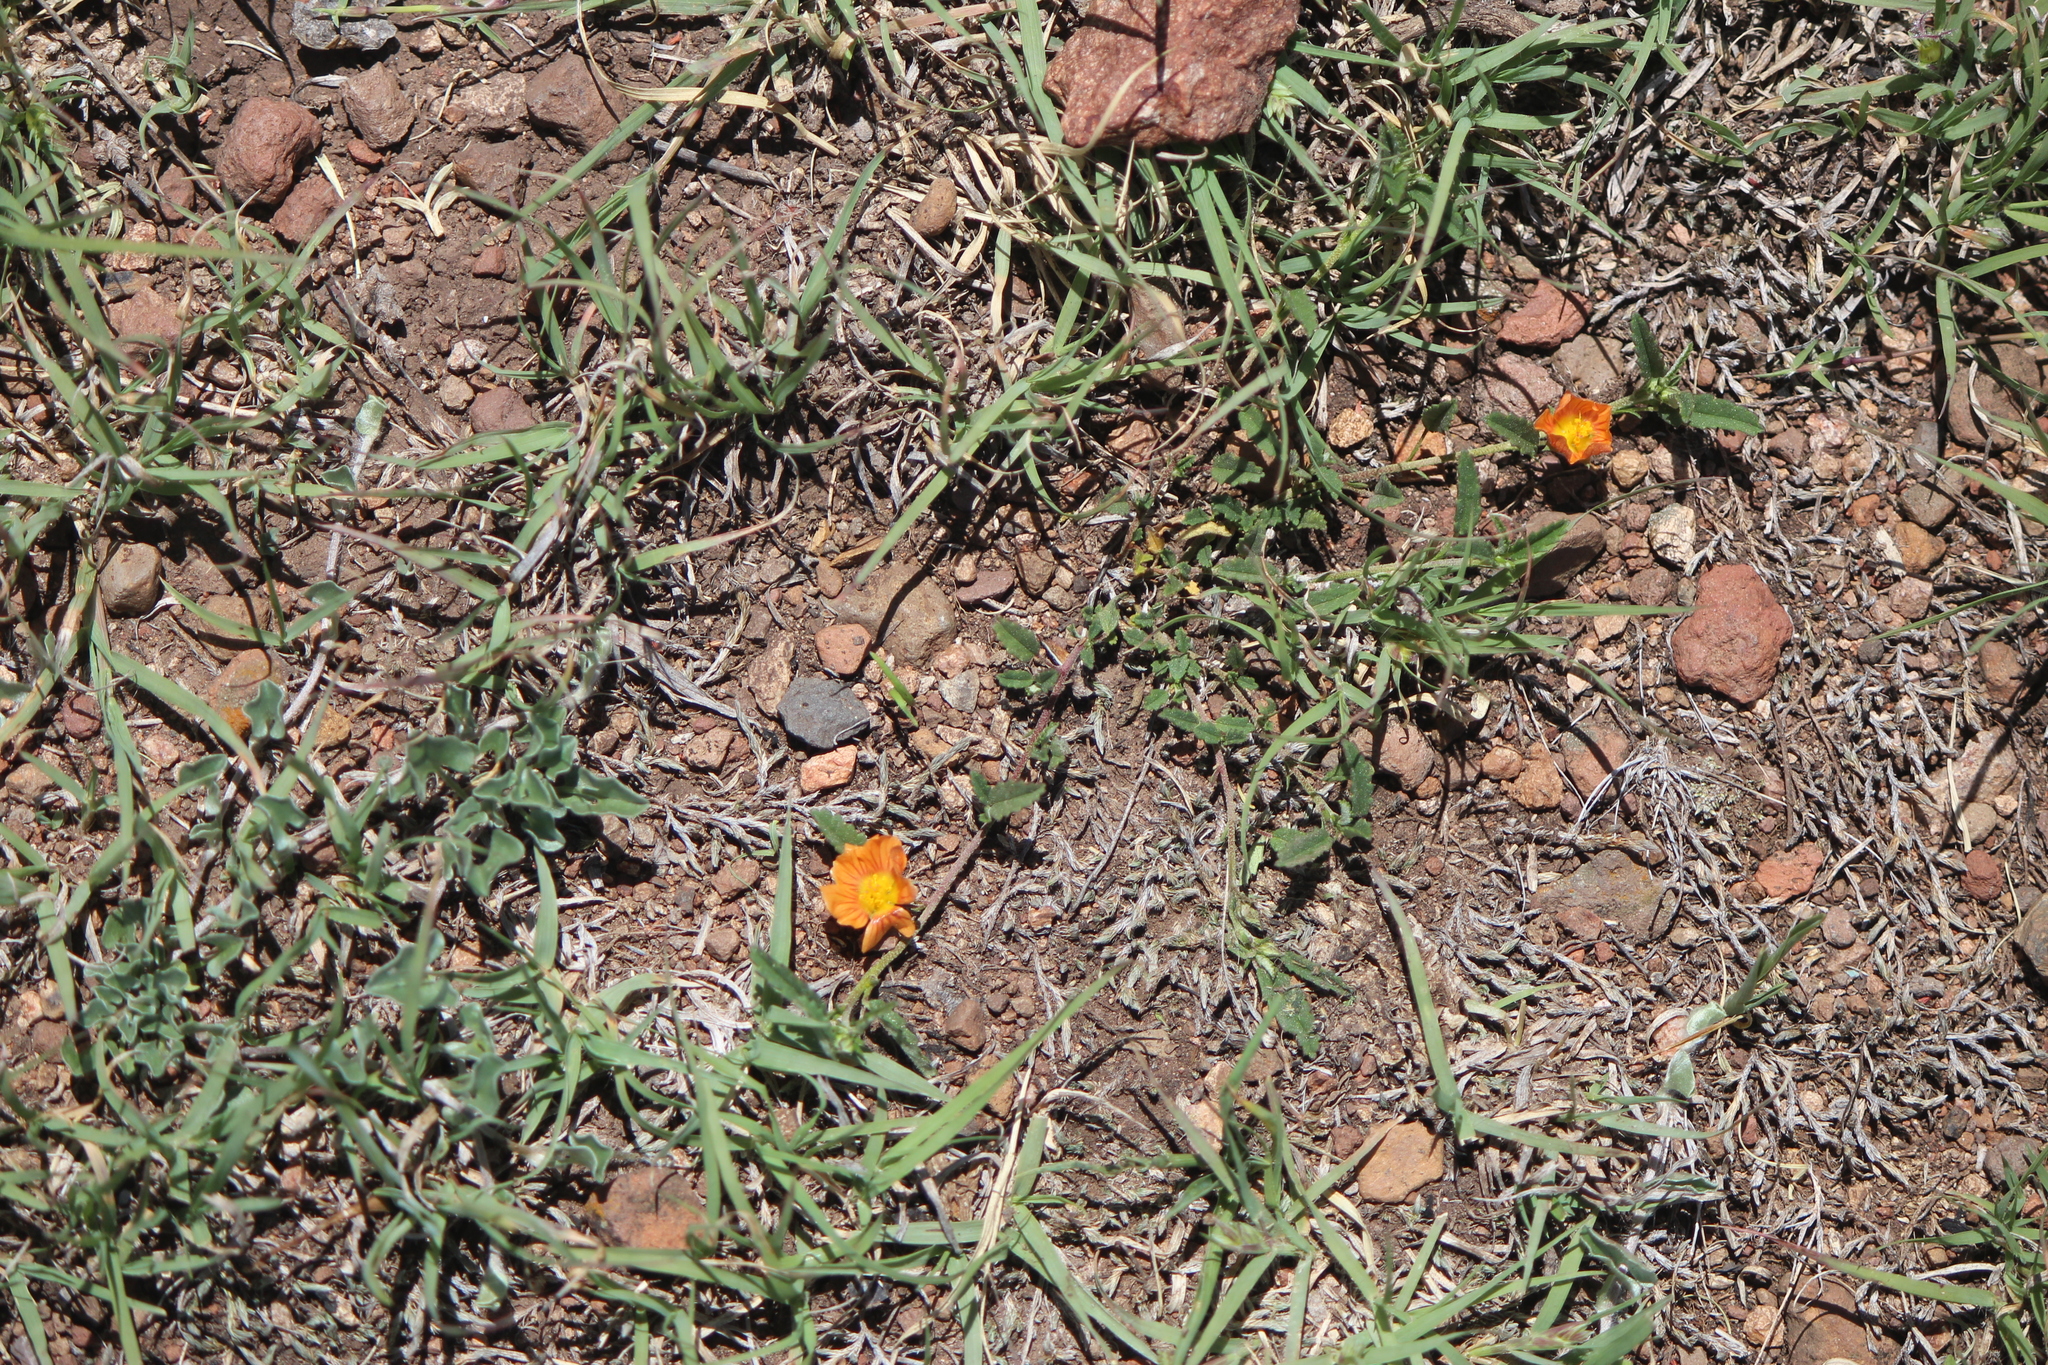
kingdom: Plantae
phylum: Tracheophyta
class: Magnoliopsida
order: Malvales
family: Malvaceae
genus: Sida
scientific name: Sida abutilifolia
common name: Spreading fanpetals
